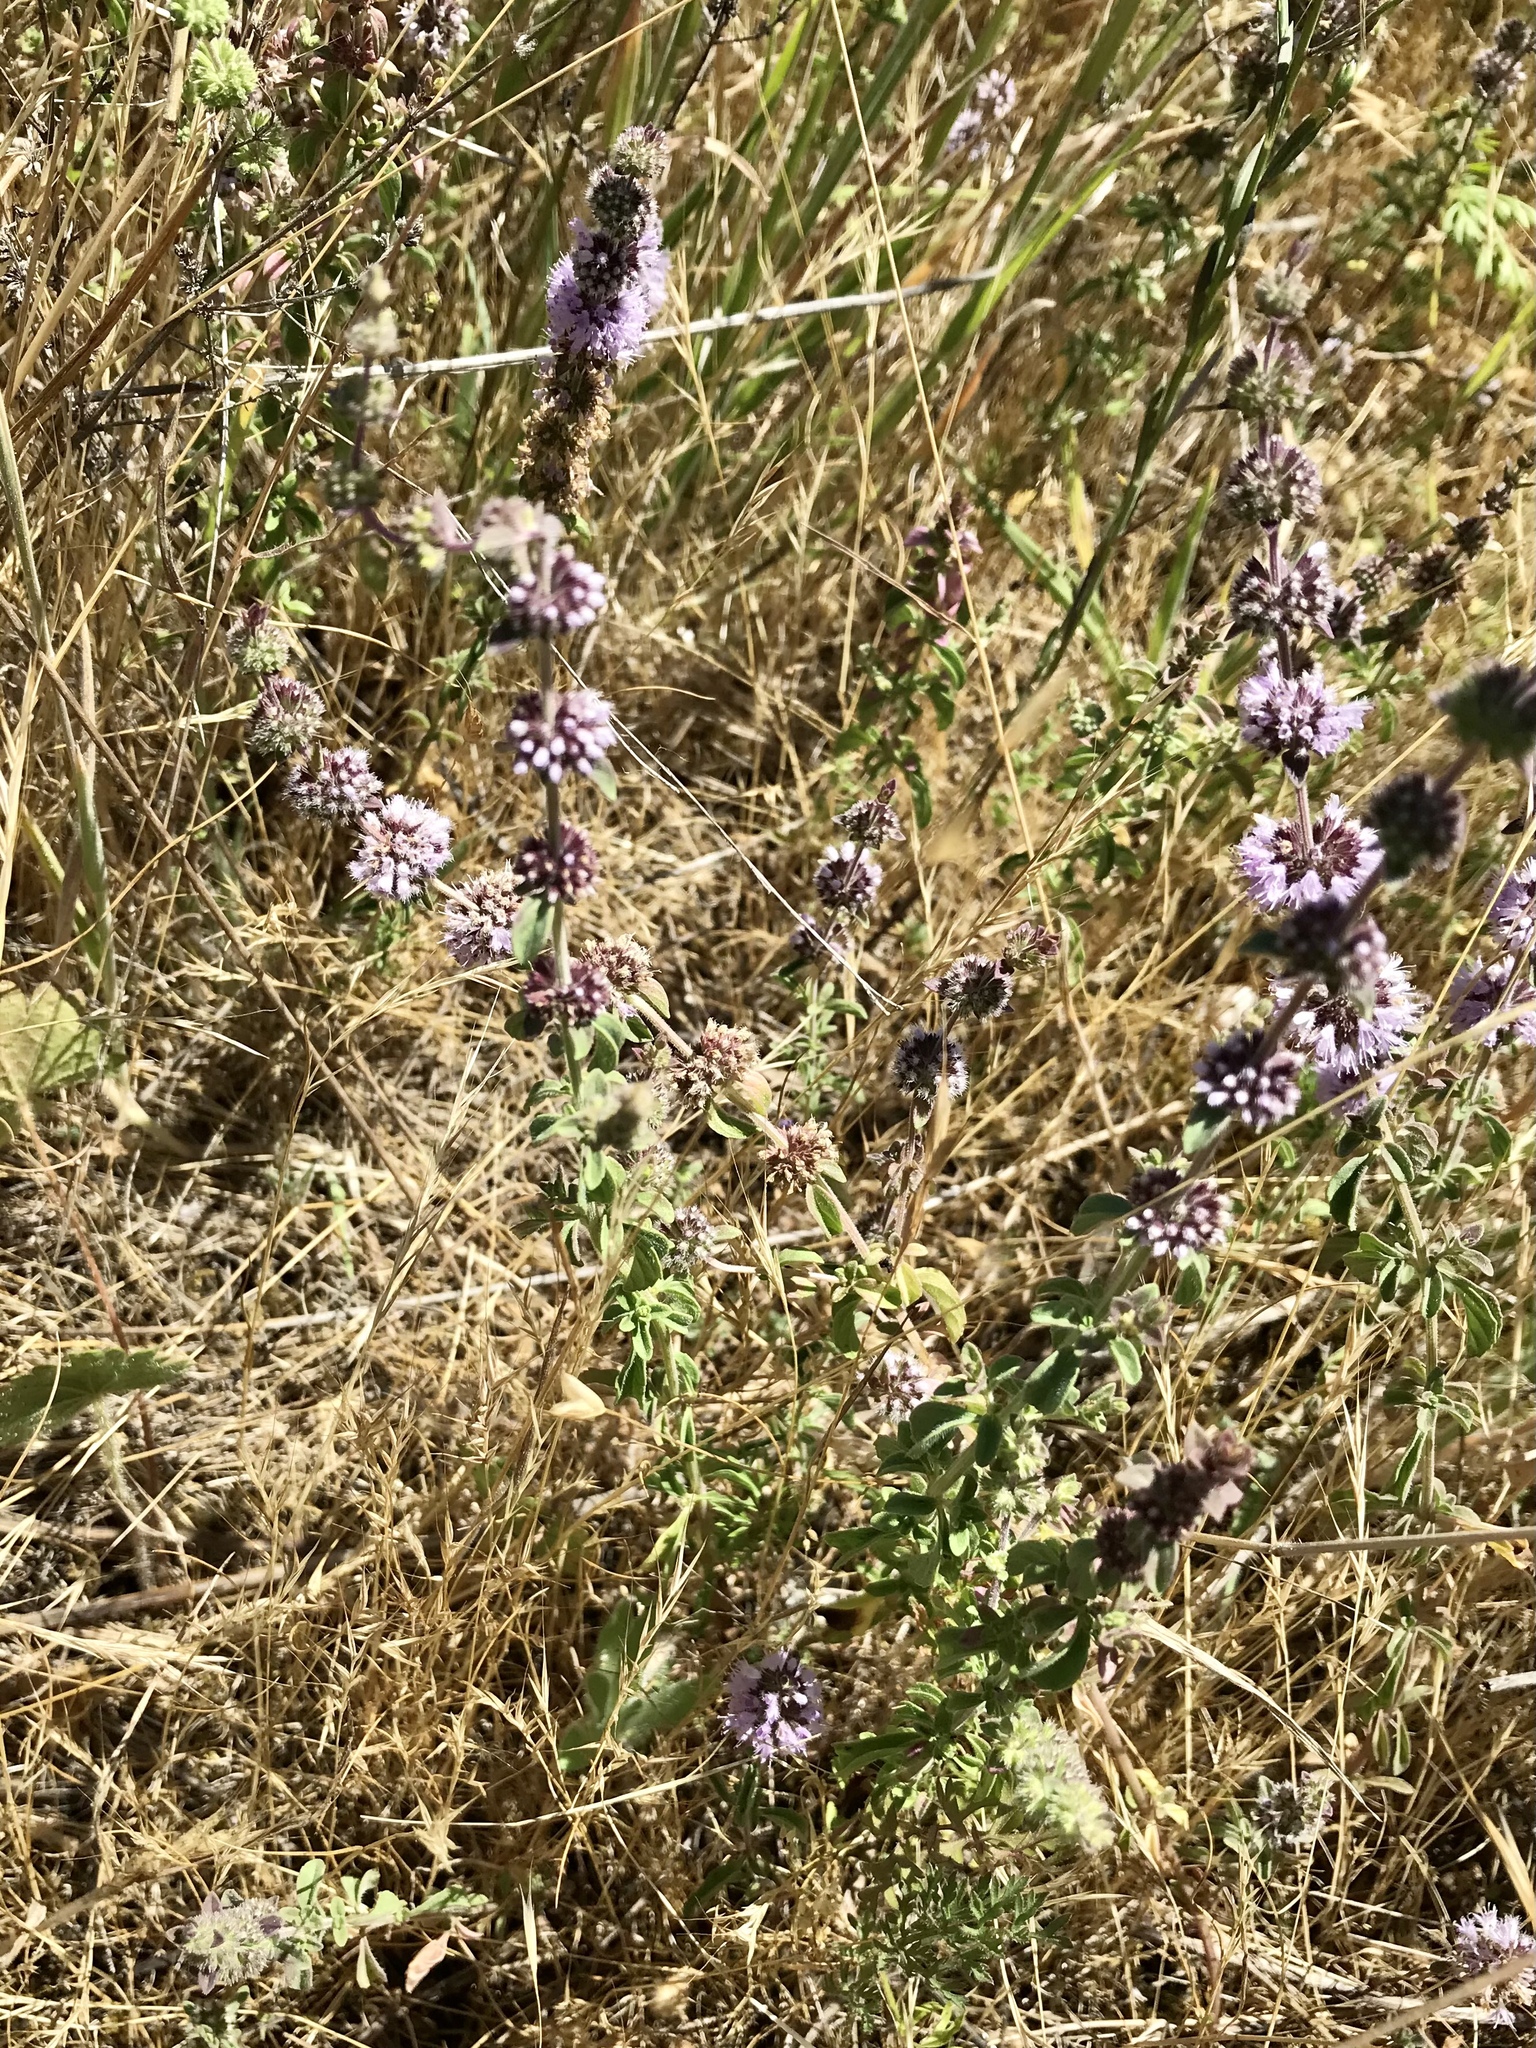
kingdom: Plantae
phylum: Tracheophyta
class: Magnoliopsida
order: Lamiales
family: Lamiaceae
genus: Mentha
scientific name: Mentha pulegium
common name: Pennyroyal
